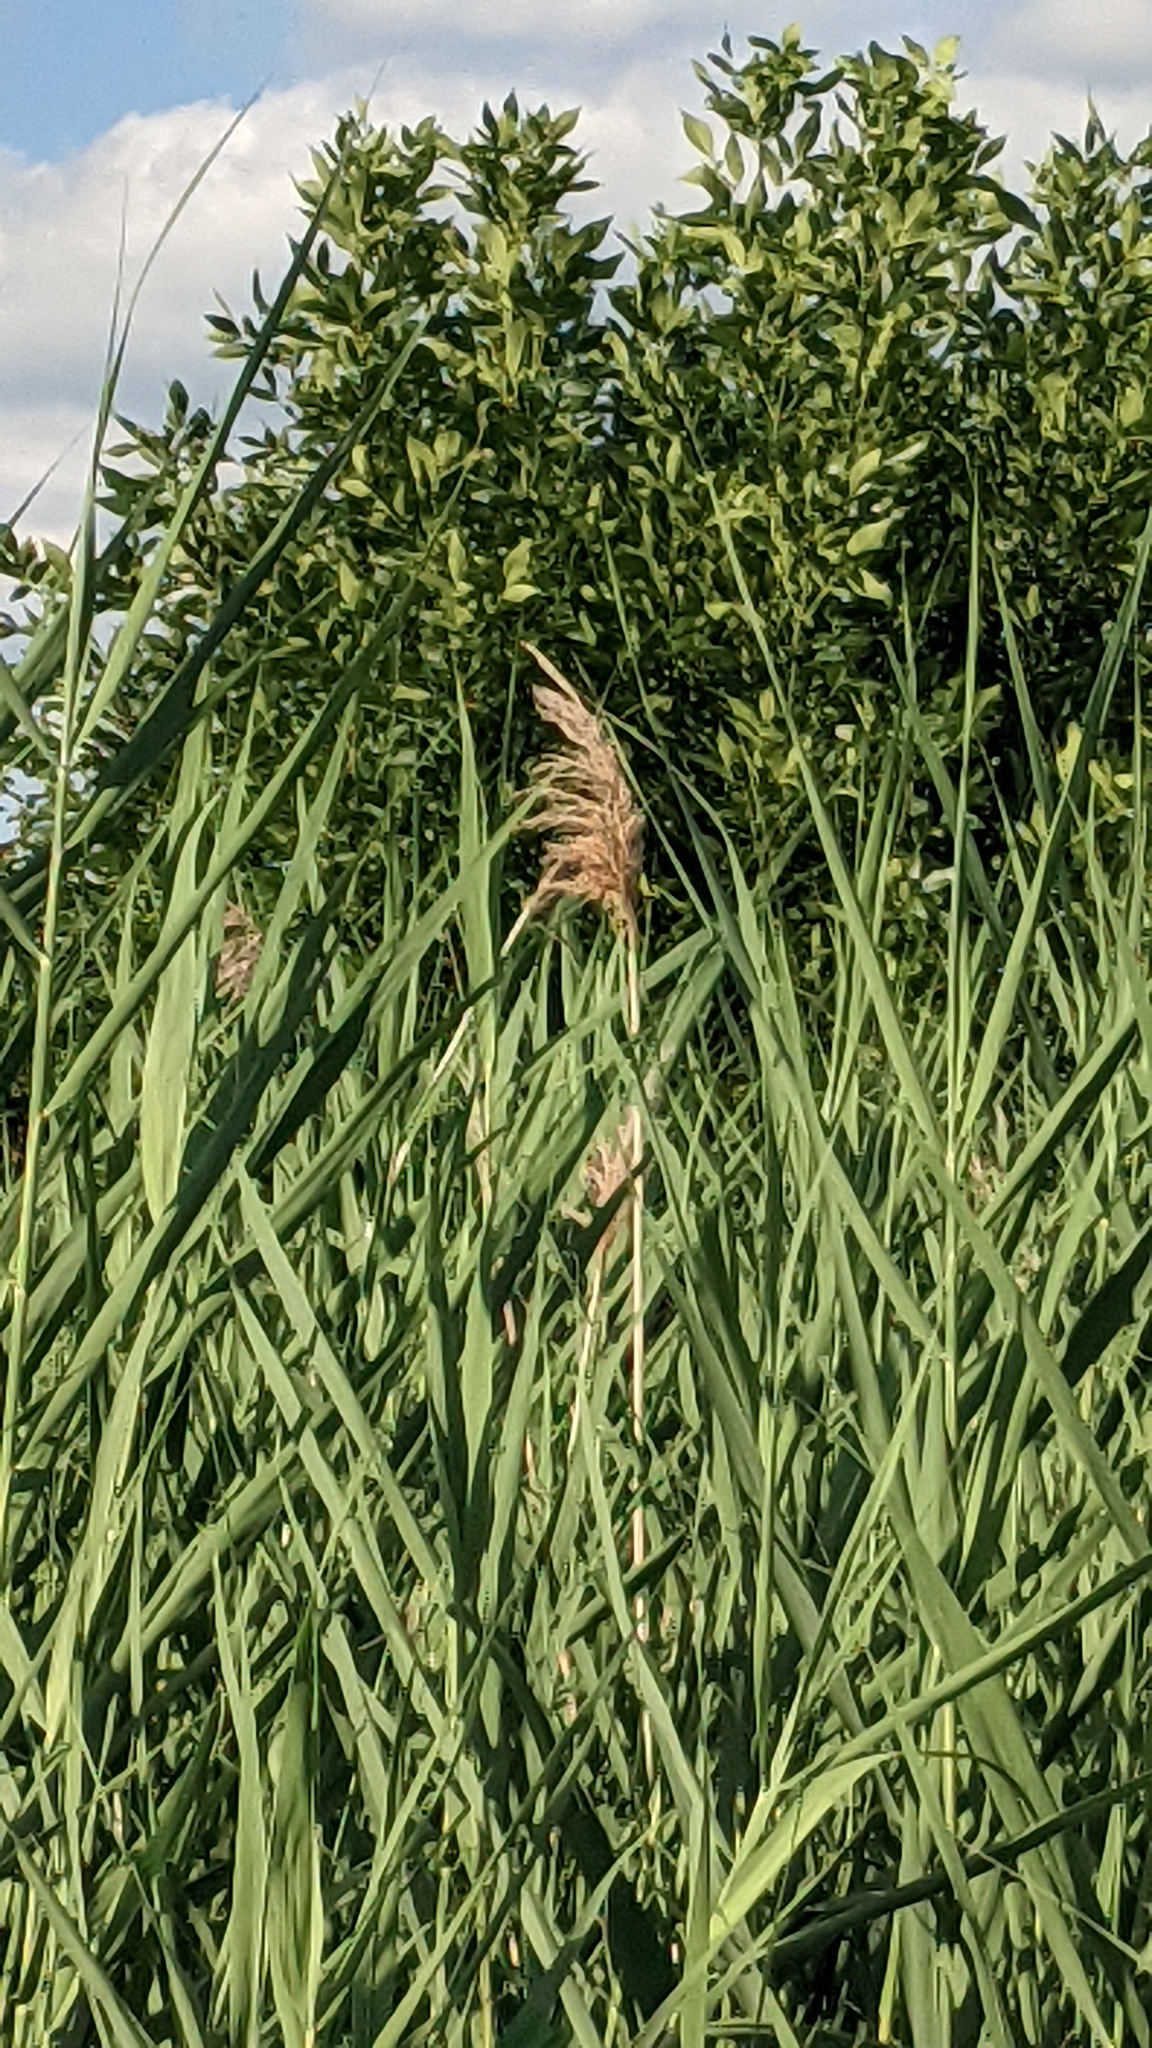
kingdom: Plantae
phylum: Tracheophyta
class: Liliopsida
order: Poales
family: Poaceae
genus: Phragmites
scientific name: Phragmites australis
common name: Common reed
